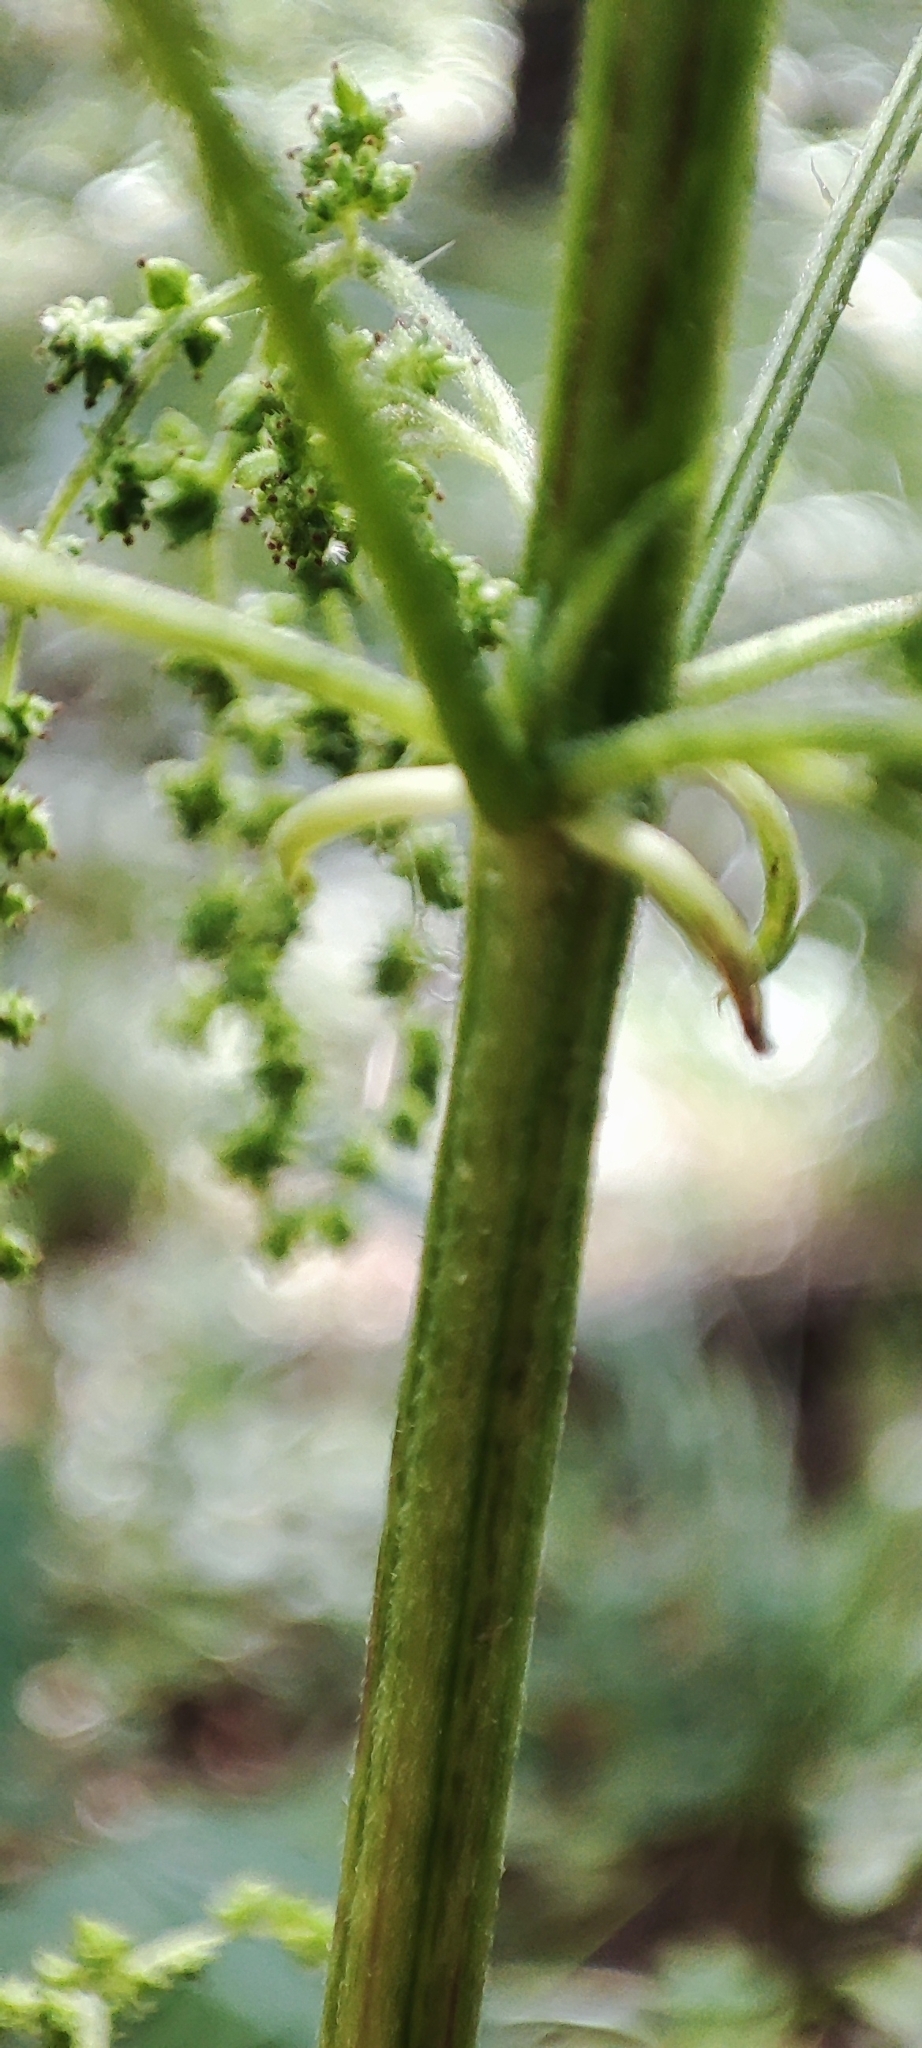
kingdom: Plantae
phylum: Tracheophyta
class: Magnoliopsida
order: Rosales
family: Urticaceae
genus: Urtica
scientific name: Urtica dioica
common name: Common nettle
